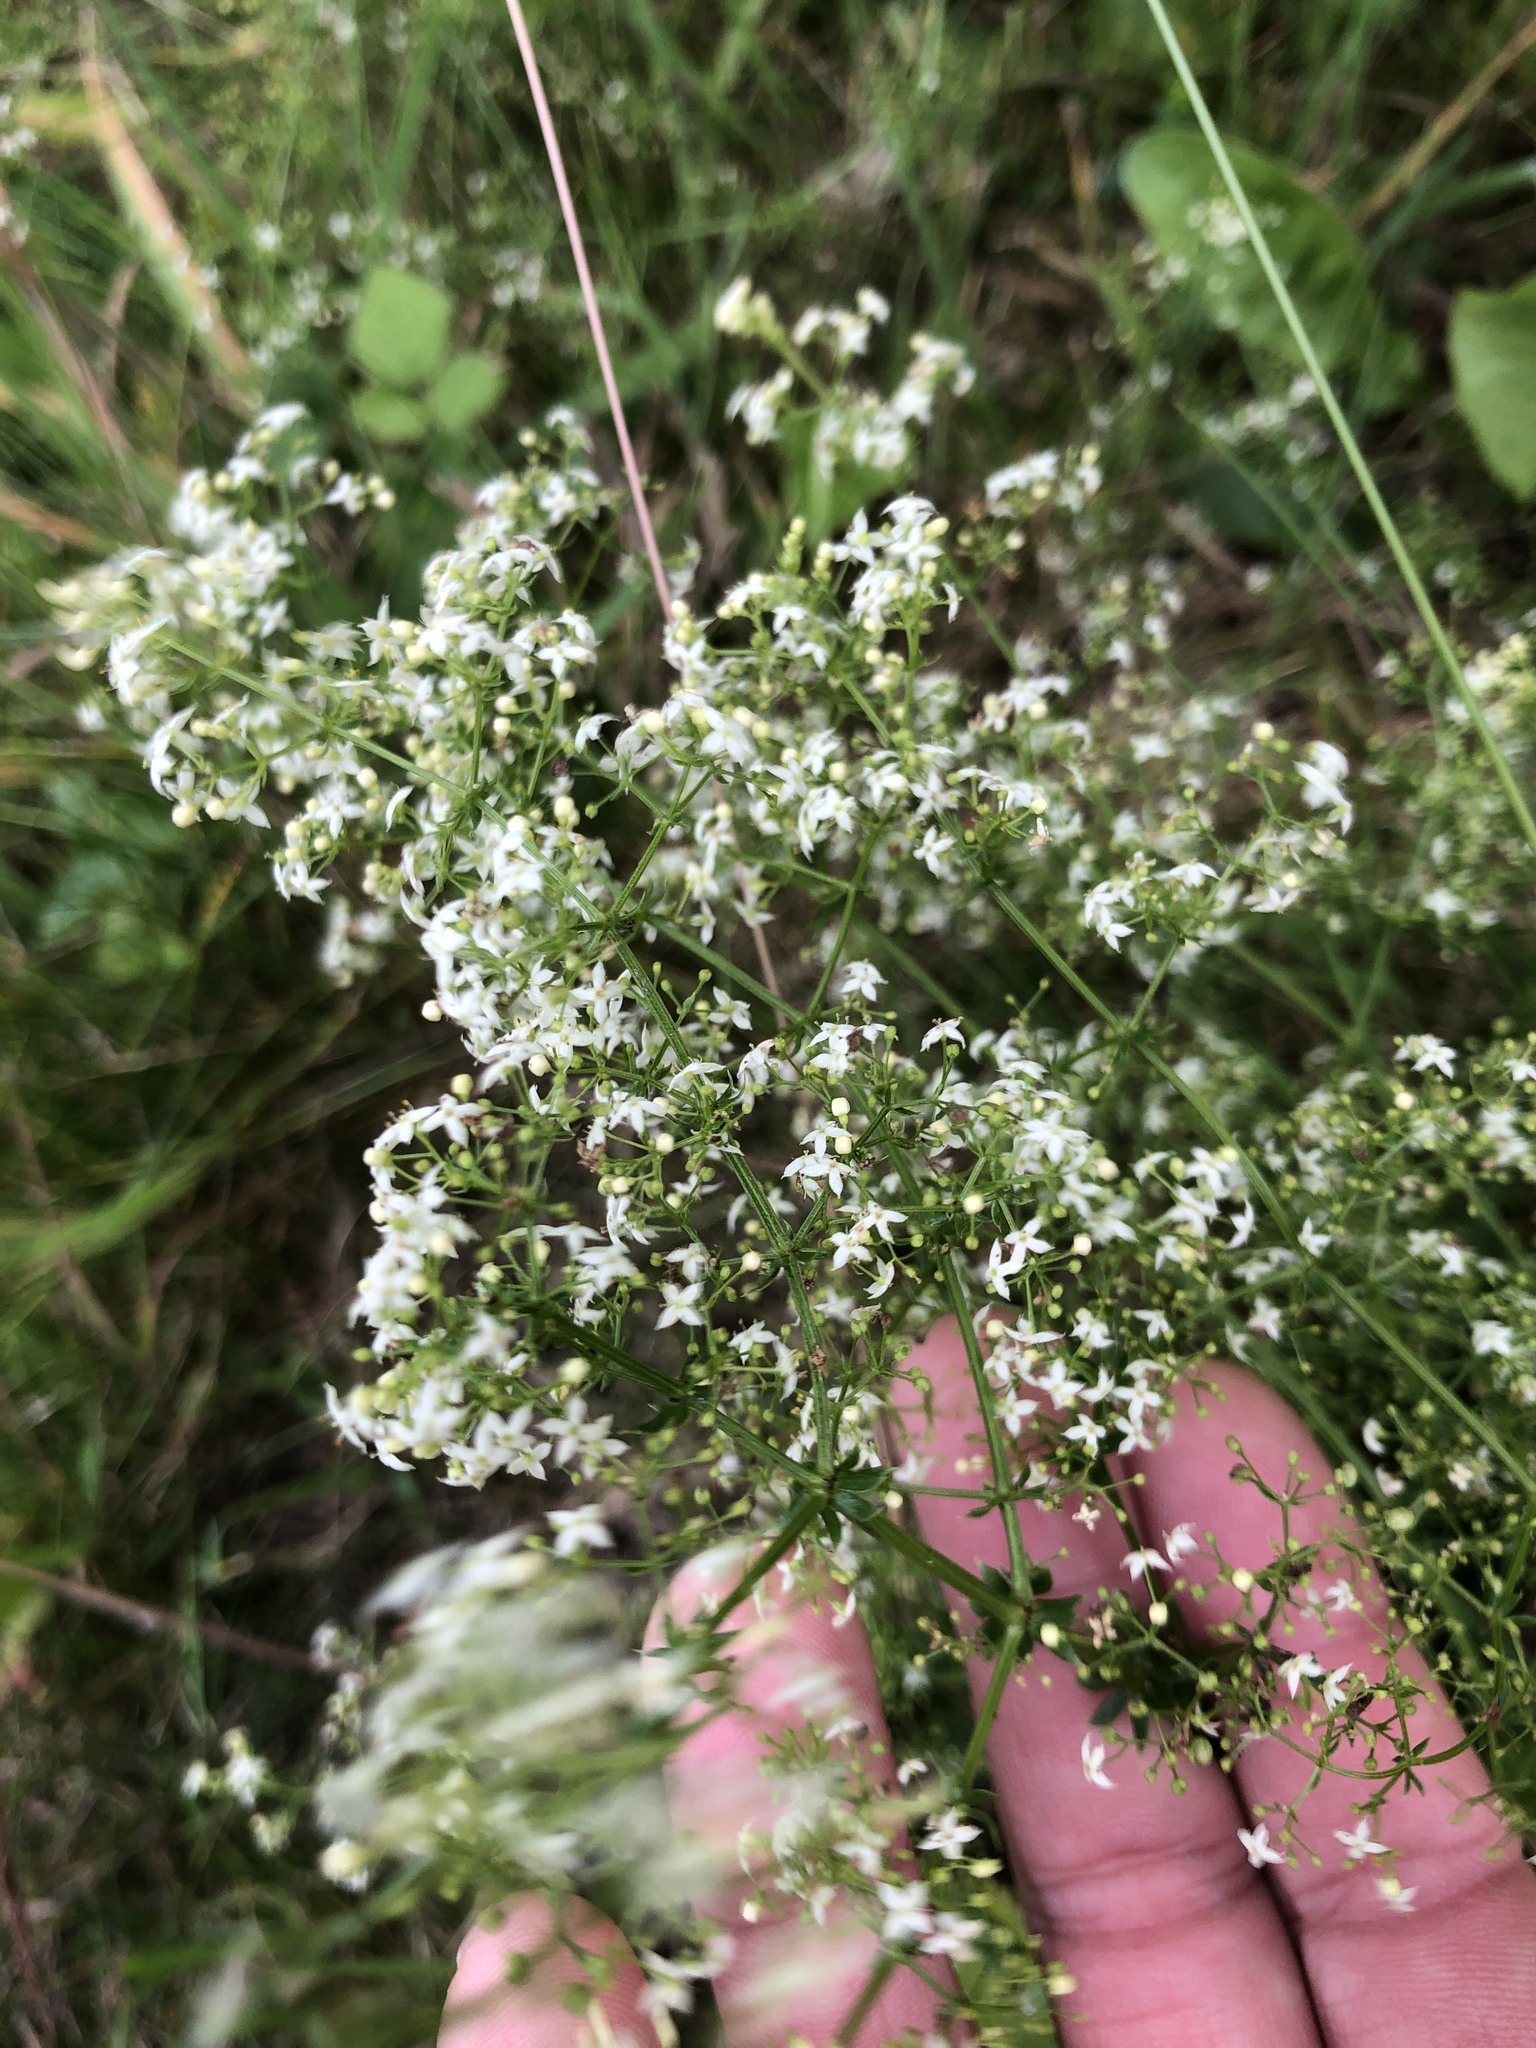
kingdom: Plantae
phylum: Tracheophyta
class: Magnoliopsida
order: Gentianales
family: Rubiaceae
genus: Galium
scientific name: Galium album
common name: White bedstraw
